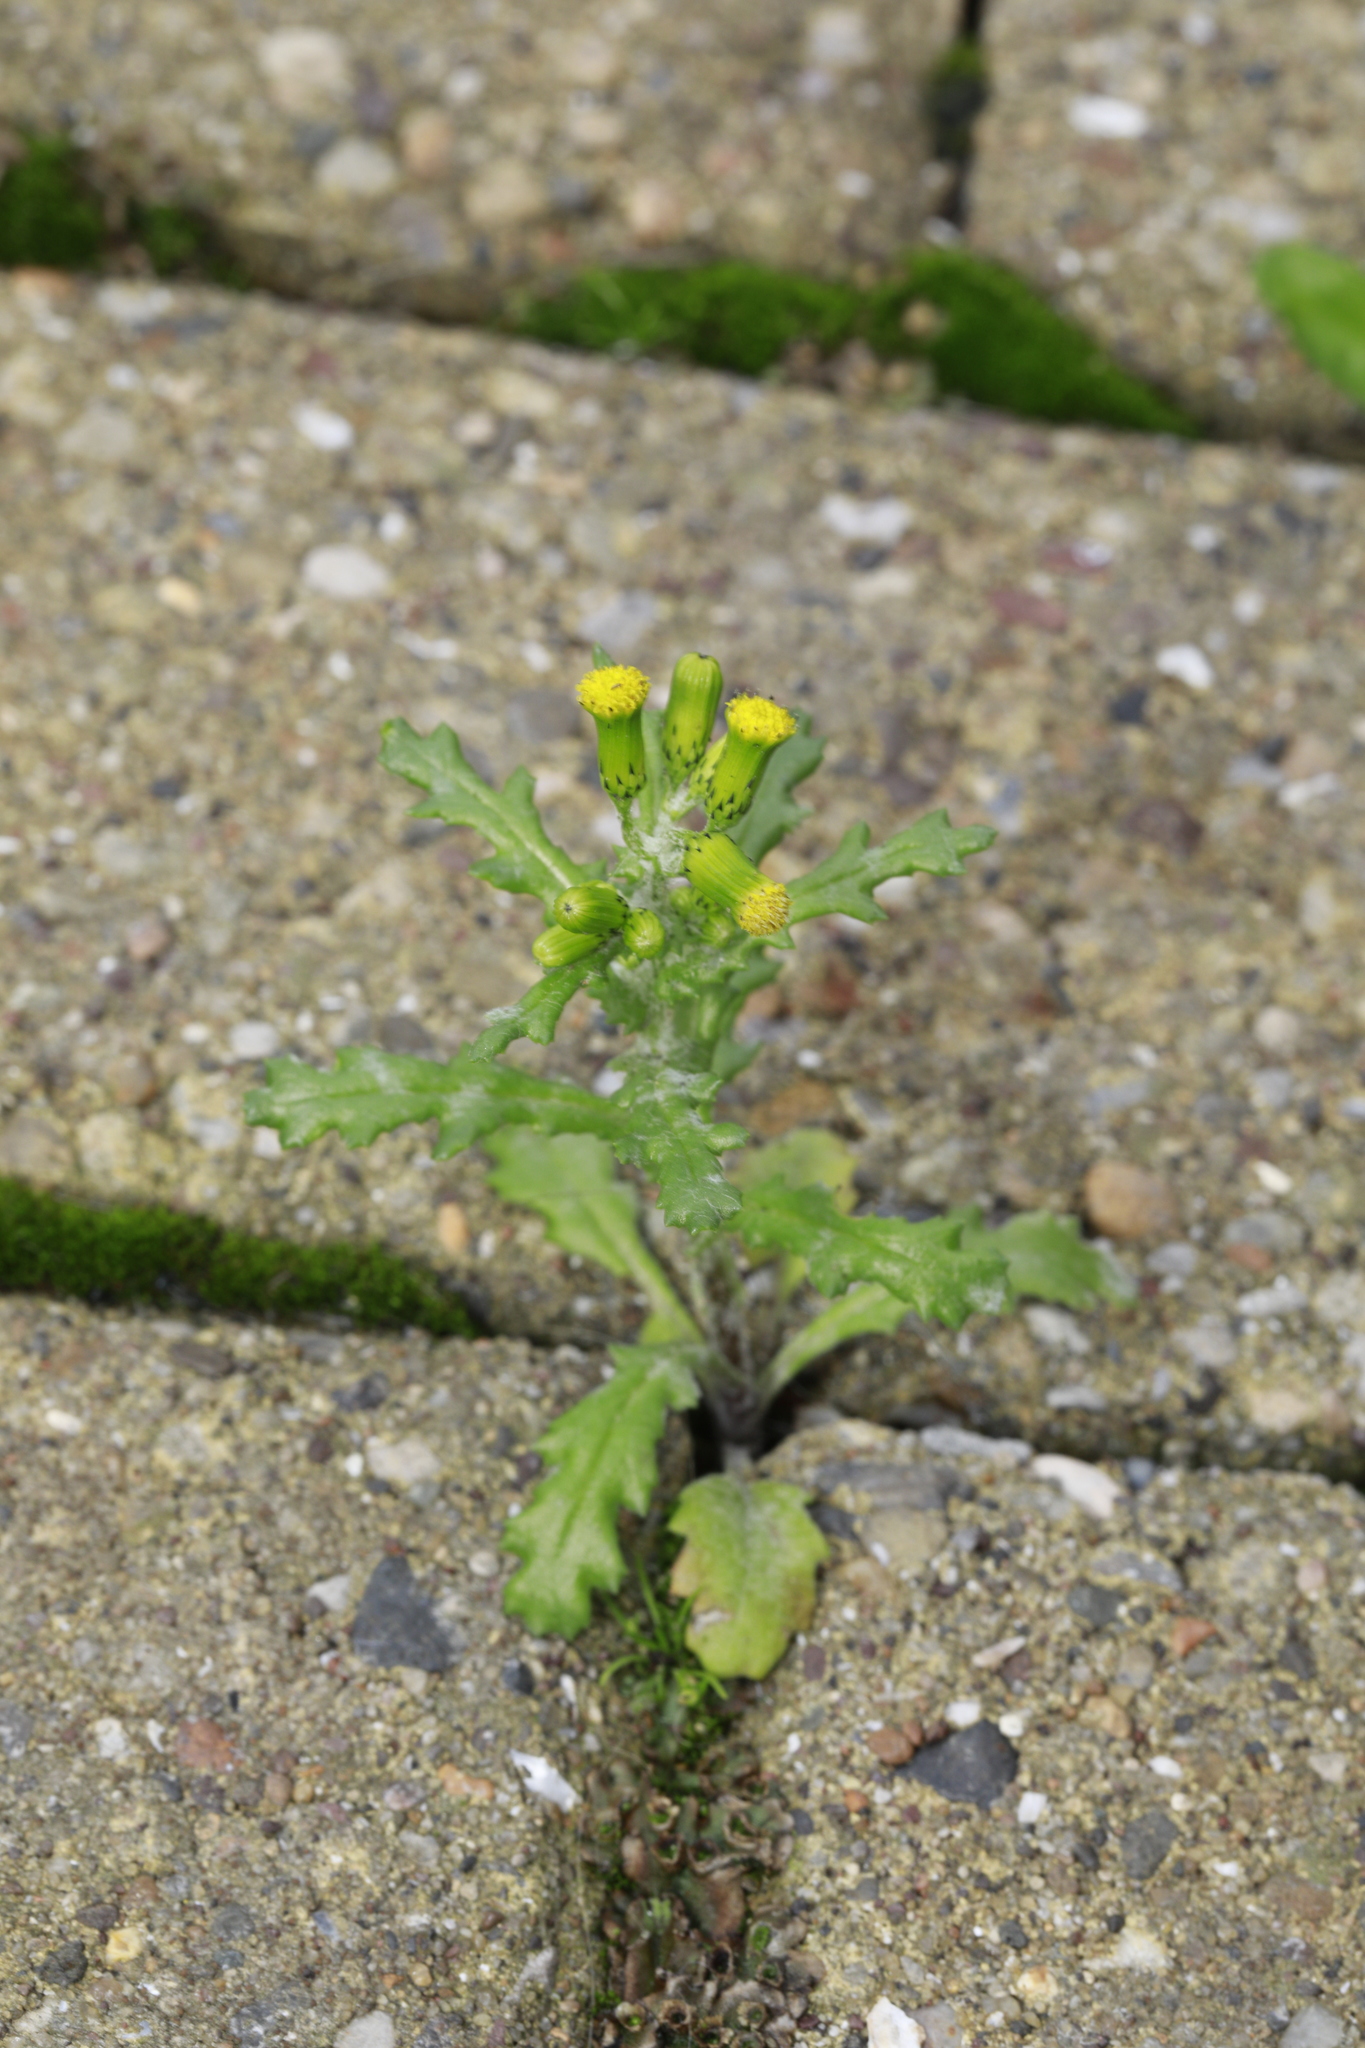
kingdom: Plantae
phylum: Tracheophyta
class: Magnoliopsida
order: Asterales
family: Asteraceae
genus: Senecio
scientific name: Senecio vulgaris
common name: Old-man-in-the-spring
